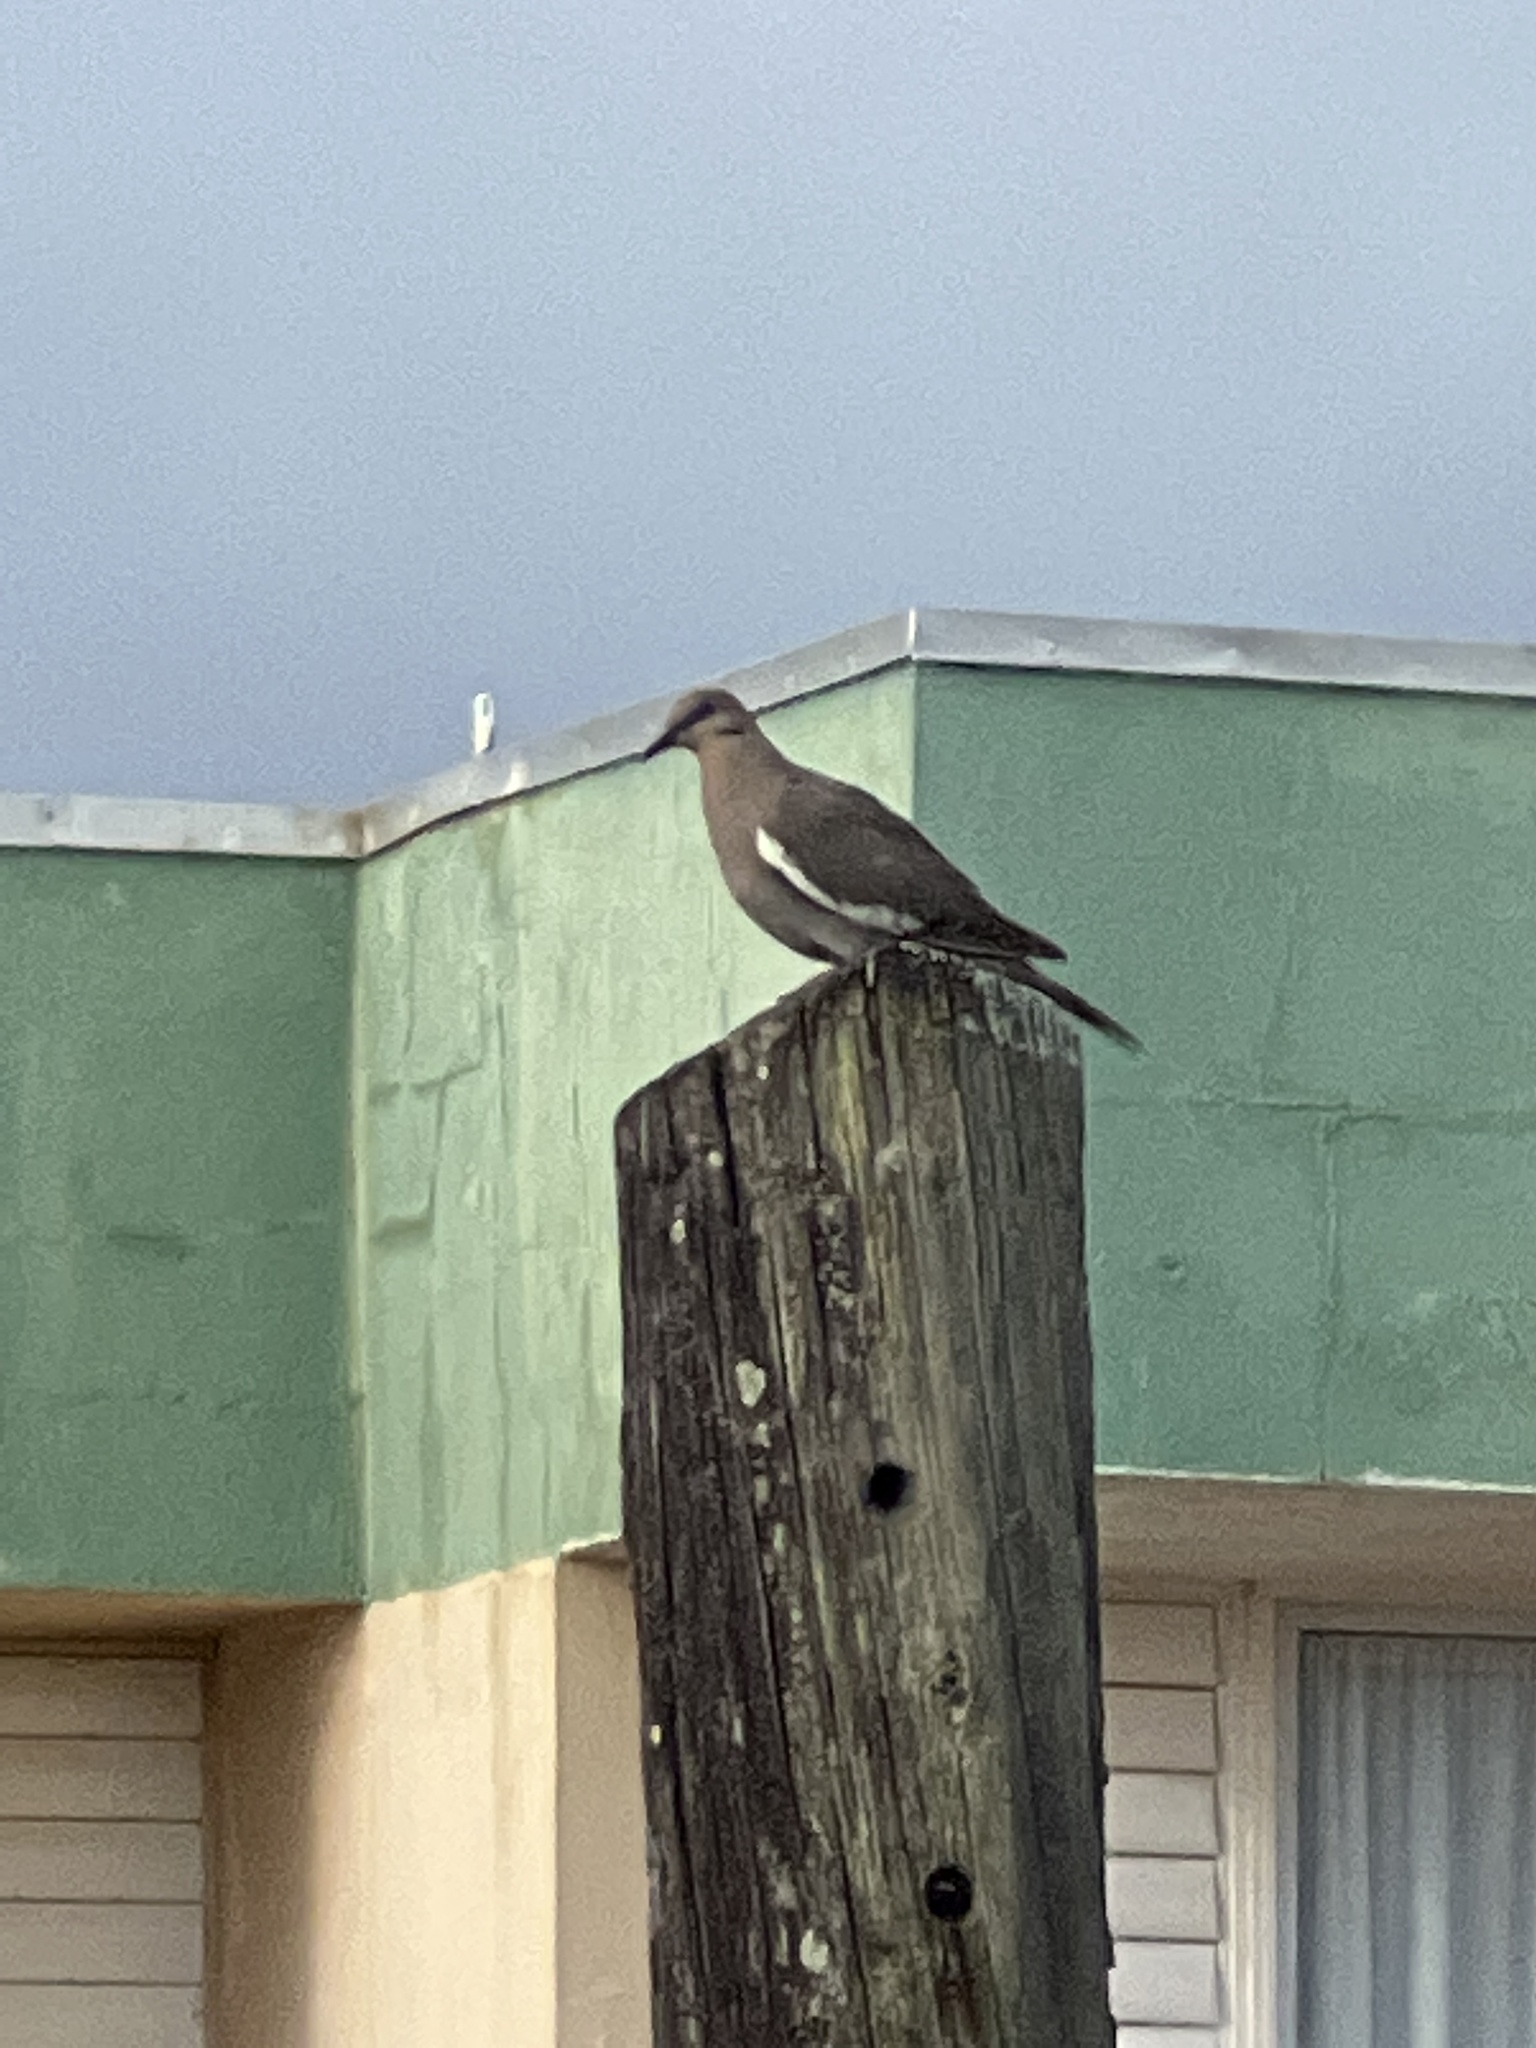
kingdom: Animalia
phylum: Chordata
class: Aves
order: Columbiformes
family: Columbidae
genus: Zenaida
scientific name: Zenaida asiatica
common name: White-winged dove
